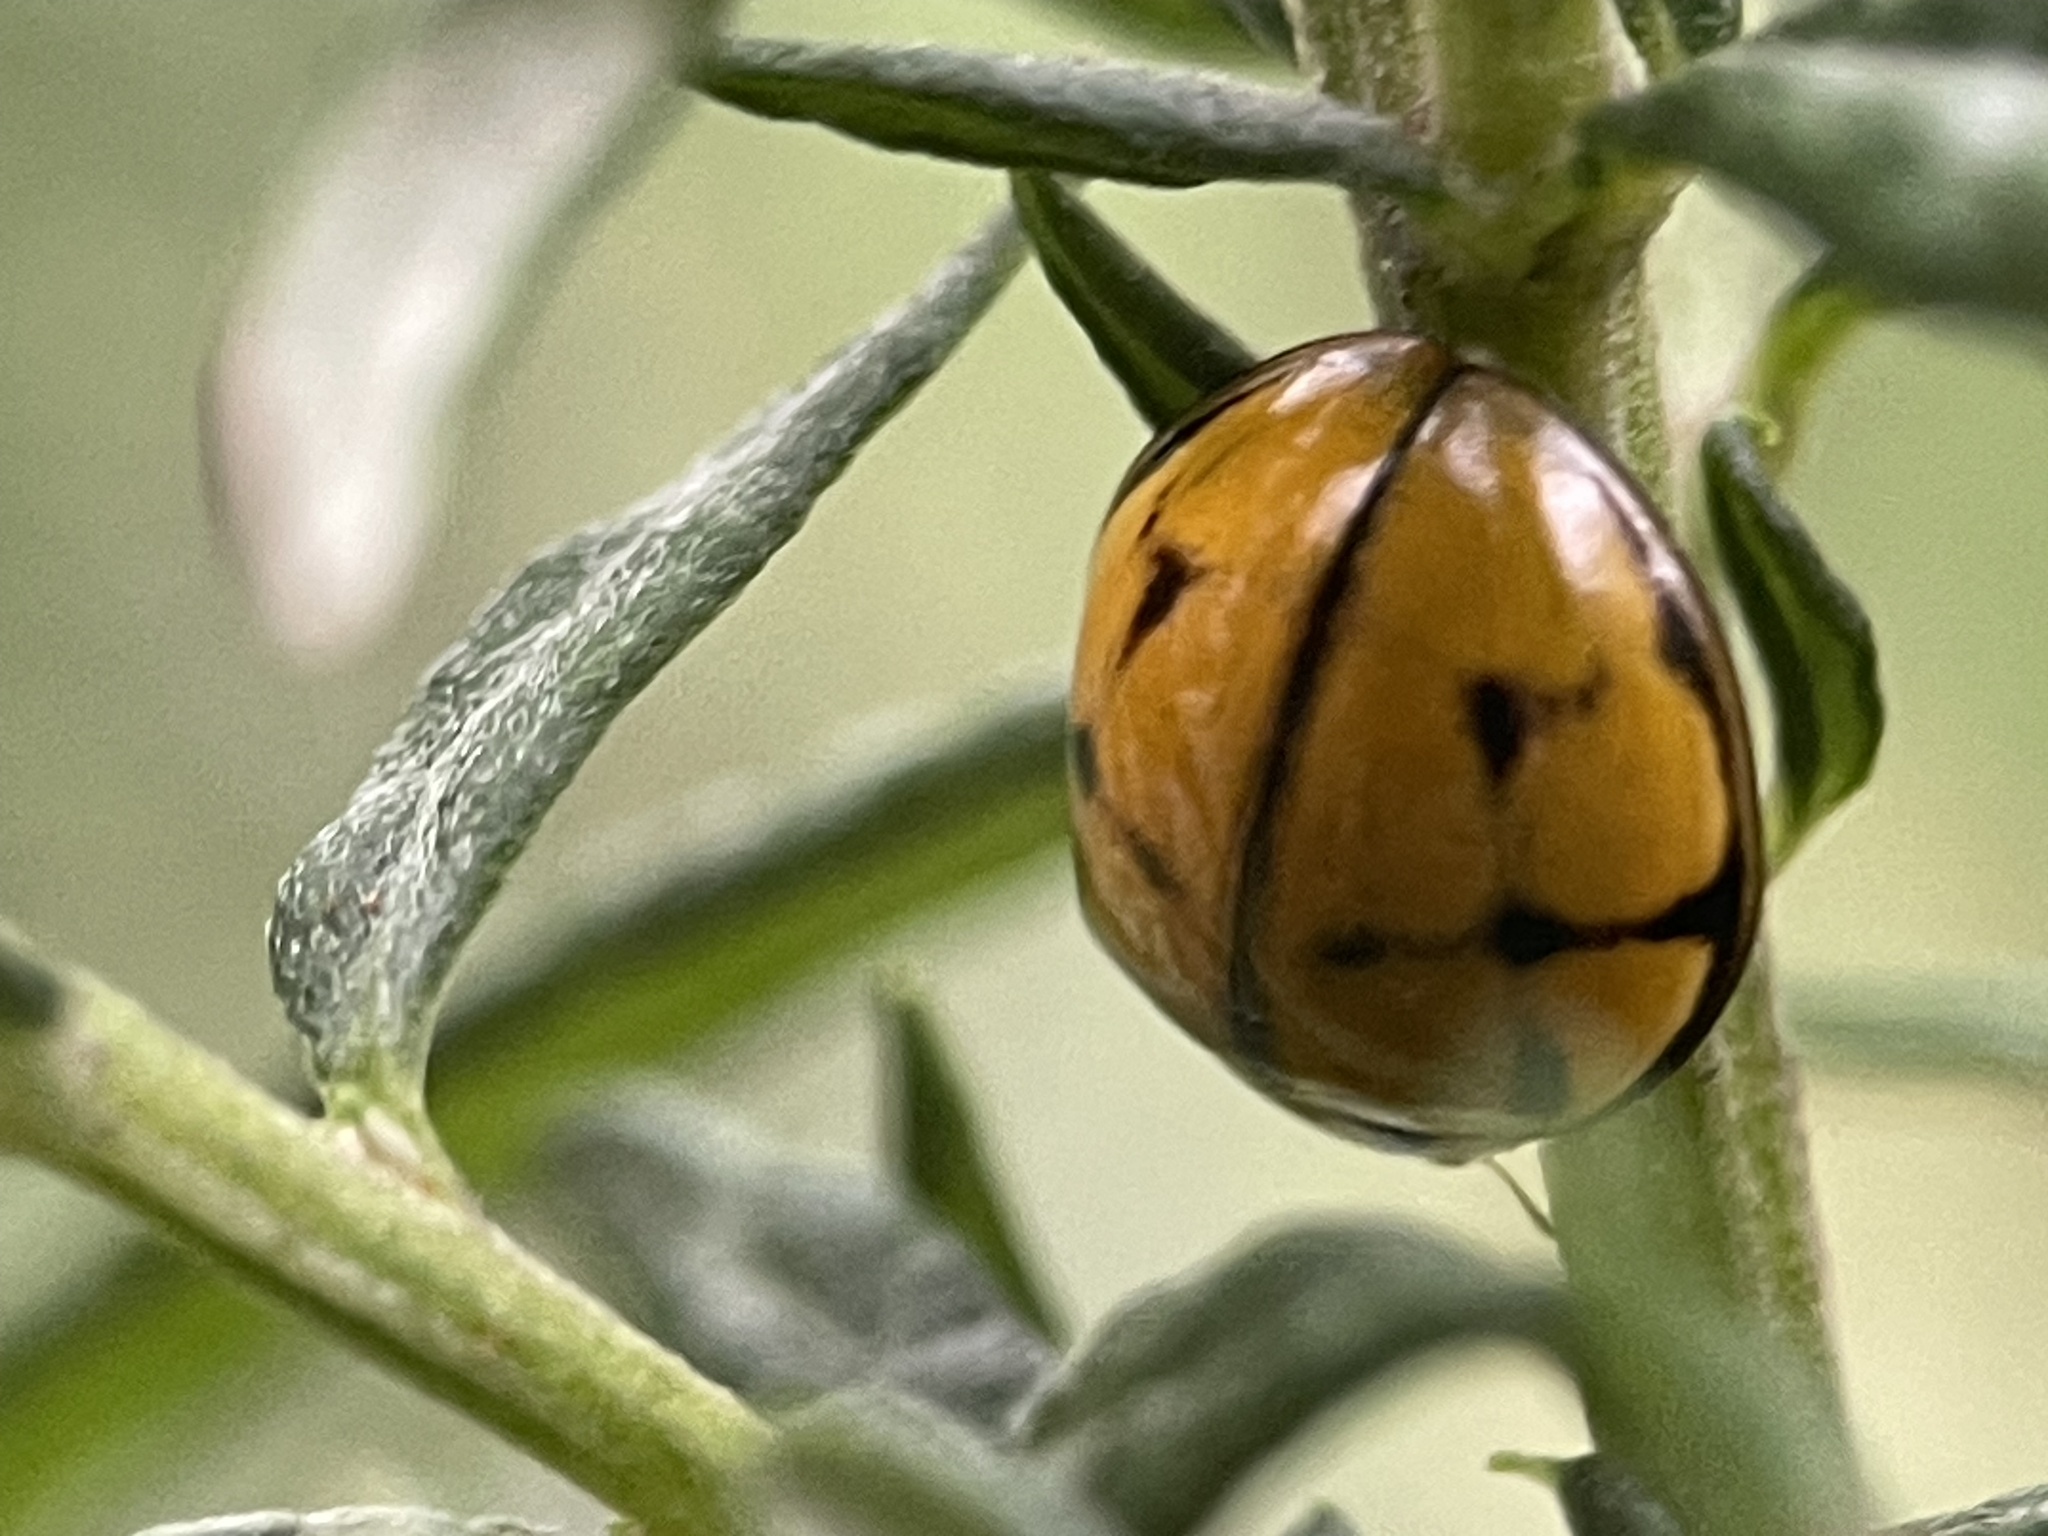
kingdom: Animalia
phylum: Arthropoda
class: Insecta
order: Coleoptera
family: Coccinellidae
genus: Harmonia
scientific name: Harmonia
